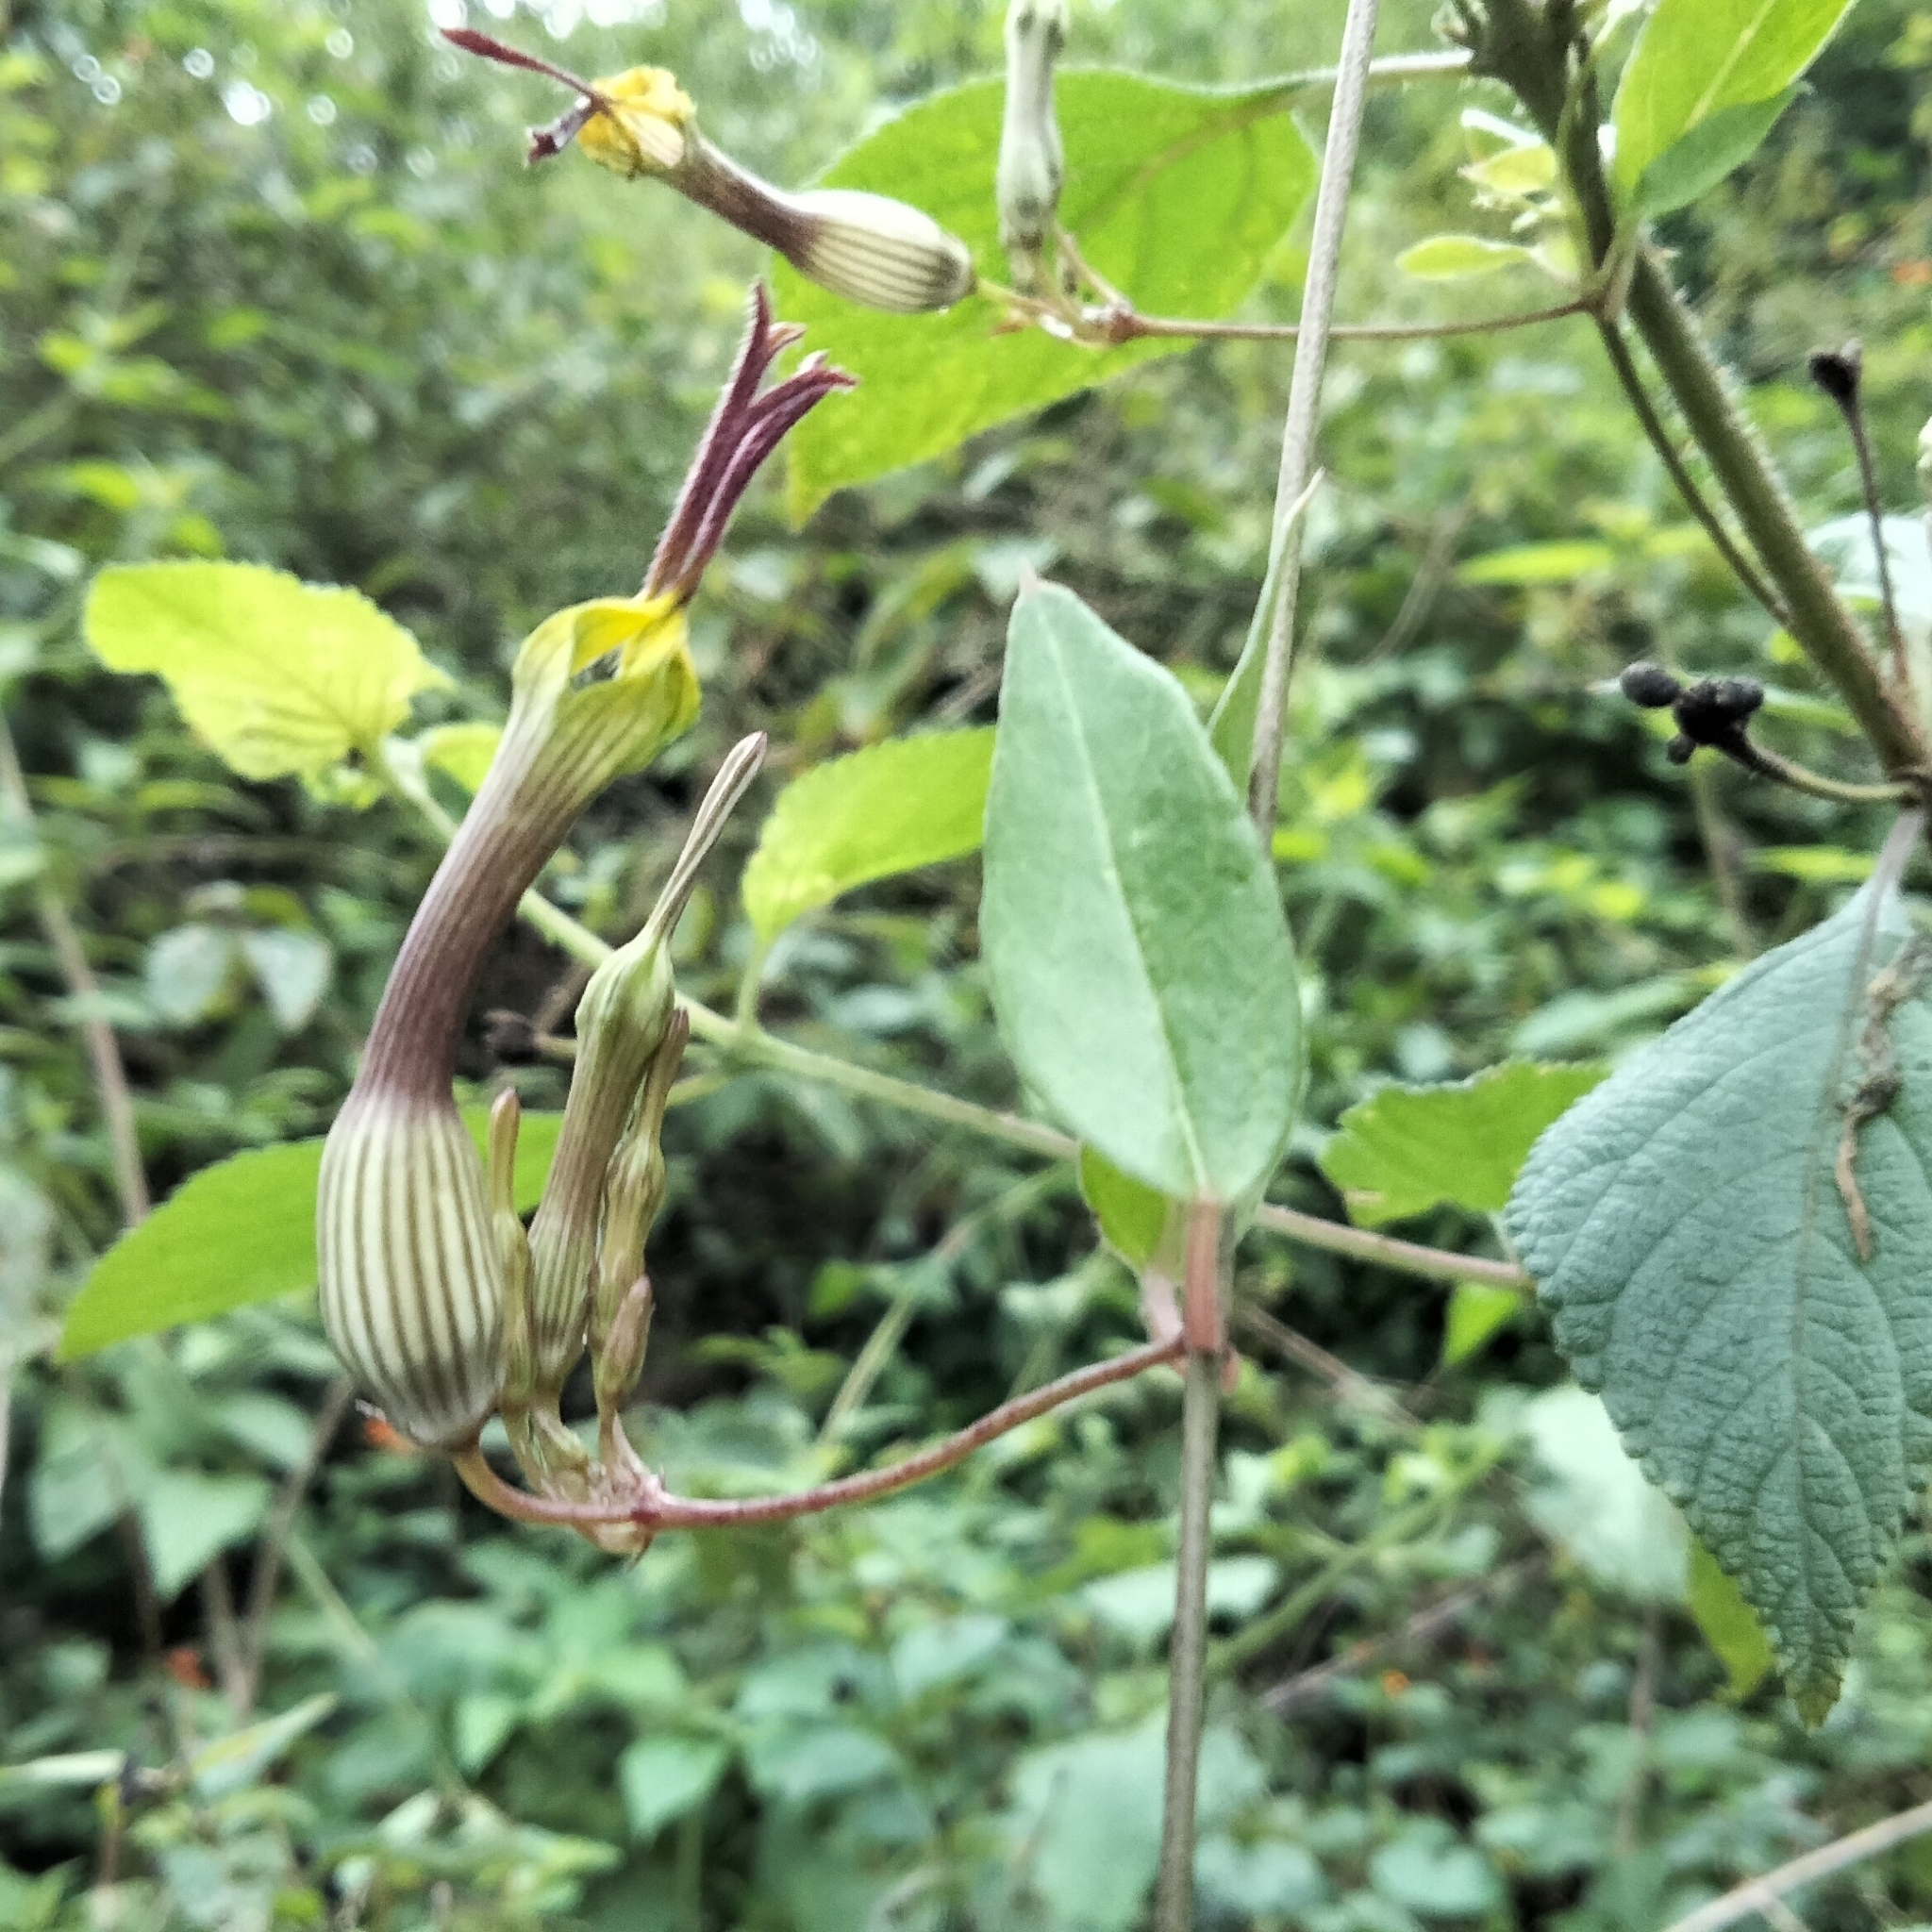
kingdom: Plantae
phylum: Tracheophyta
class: Magnoliopsida
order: Gentianales
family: Apocynaceae
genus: Ceropegia
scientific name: Ceropegia candelabrum
